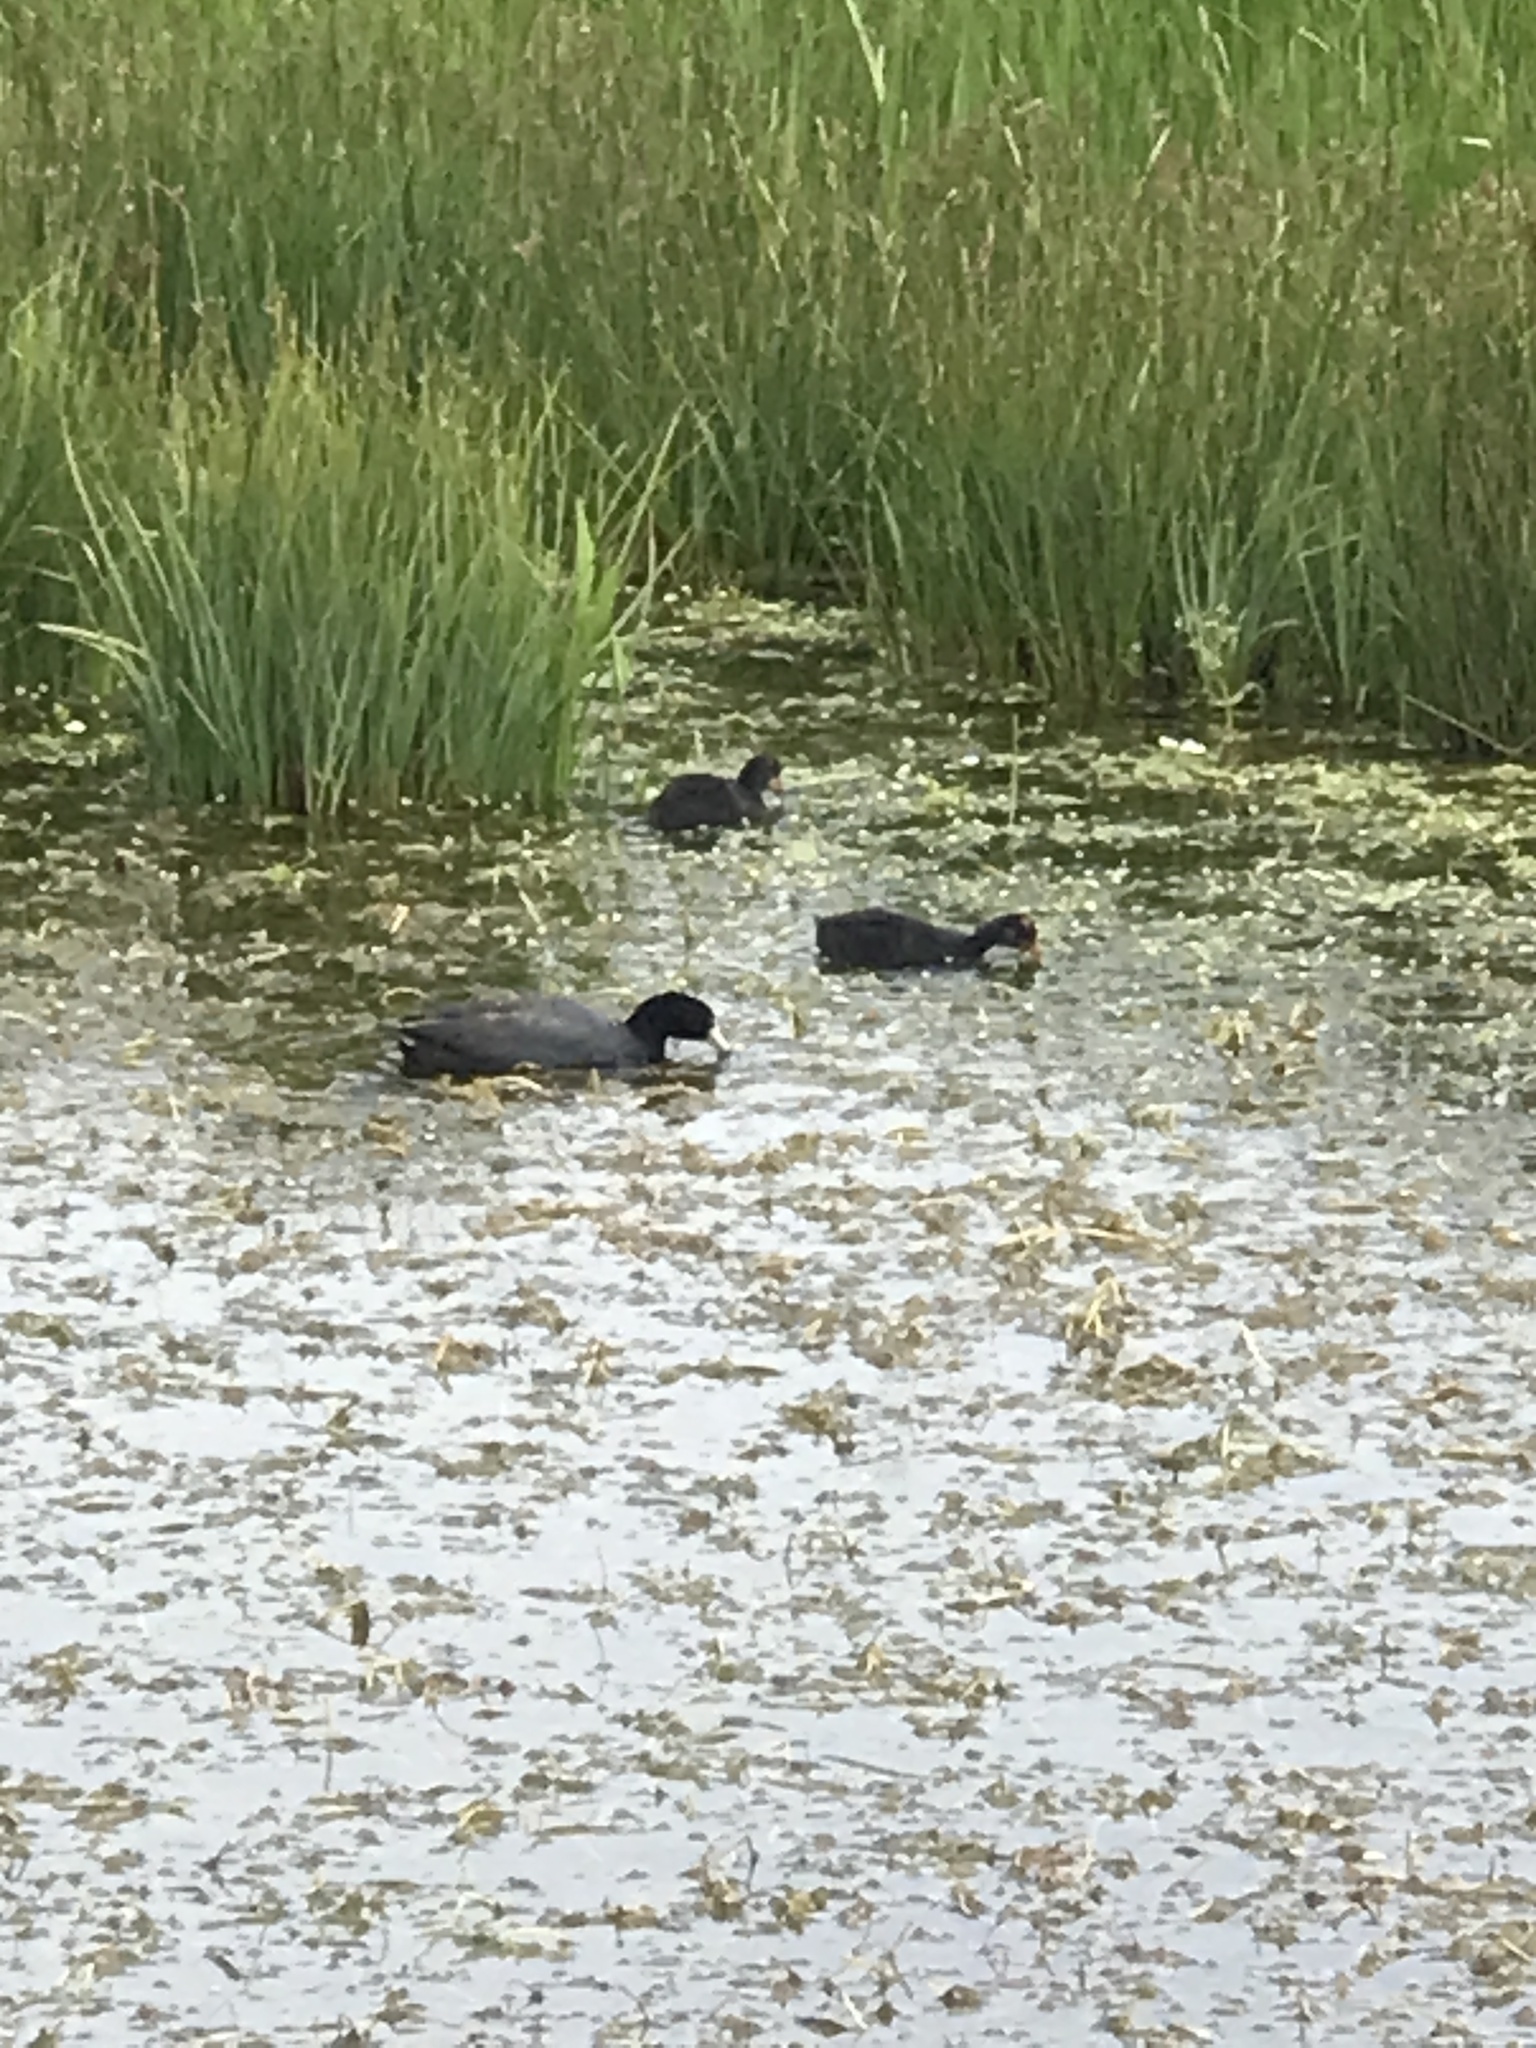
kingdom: Animalia
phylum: Chordata
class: Aves
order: Gruiformes
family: Rallidae
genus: Fulica
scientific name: Fulica americana
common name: American coot
